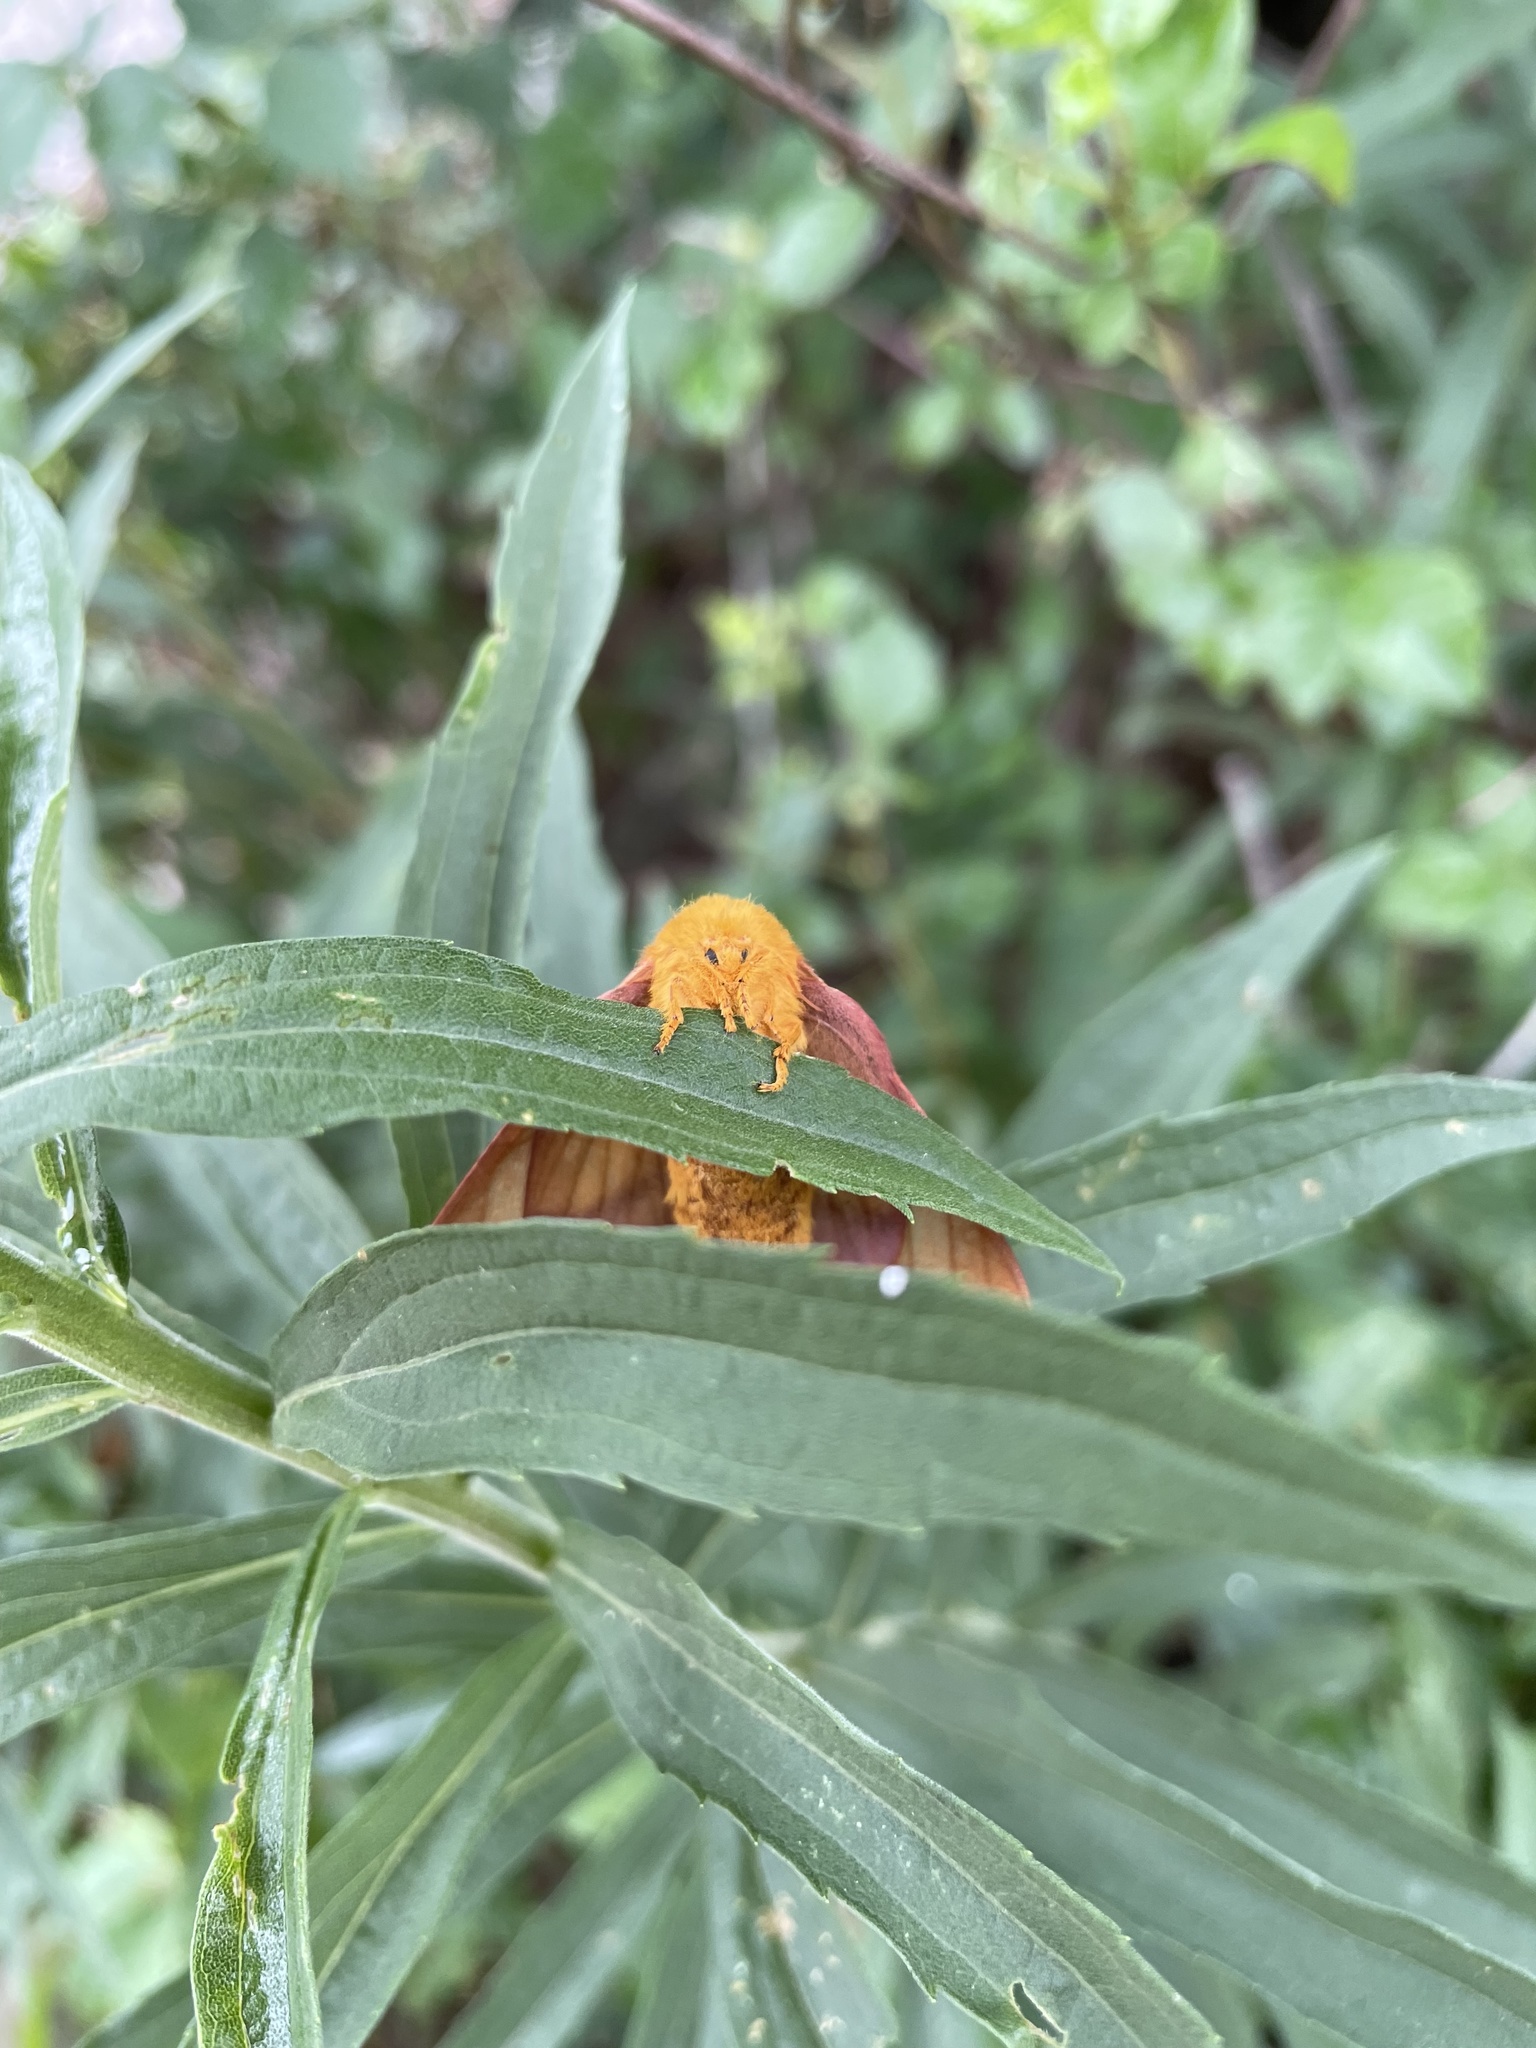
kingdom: Animalia
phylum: Arthropoda
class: Insecta
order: Lepidoptera
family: Saturniidae
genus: Anisota
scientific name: Anisota virginiensis
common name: Pink striped oakworm moth
